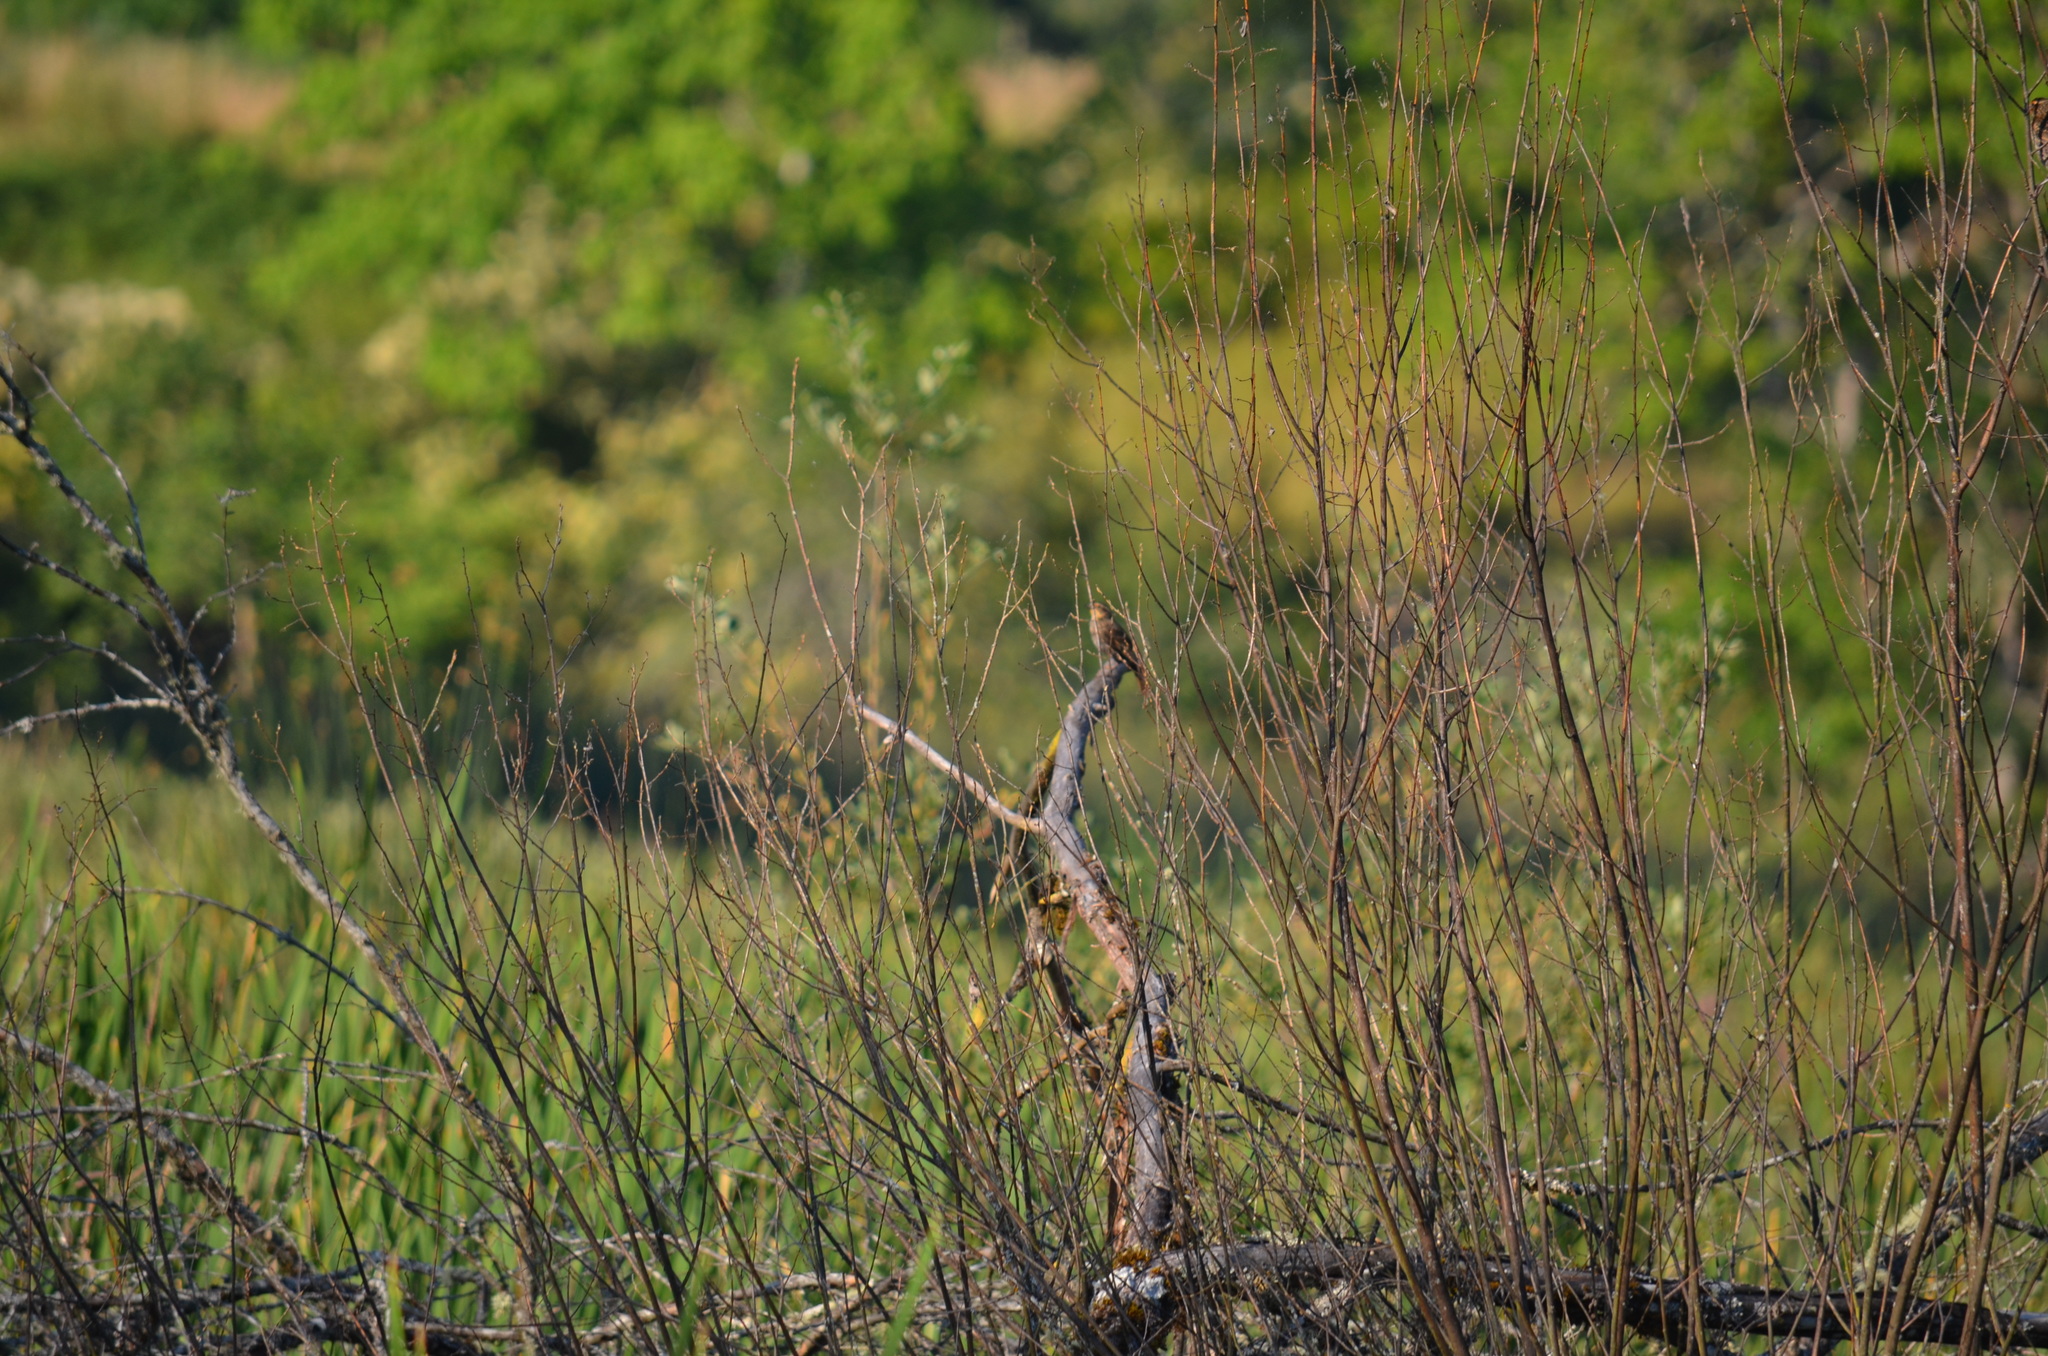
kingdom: Animalia
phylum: Chordata
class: Aves
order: Passeriformes
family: Icteridae
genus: Agelaius
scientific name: Agelaius phoeniceus
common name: Red-winged blackbird
